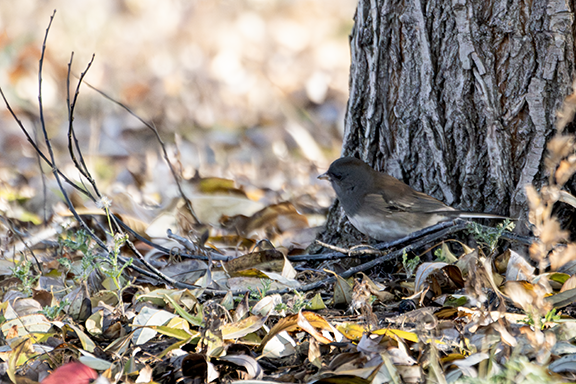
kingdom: Animalia
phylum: Chordata
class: Aves
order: Passeriformes
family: Passerellidae
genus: Junco
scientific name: Junco hyemalis
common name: Dark-eyed junco
